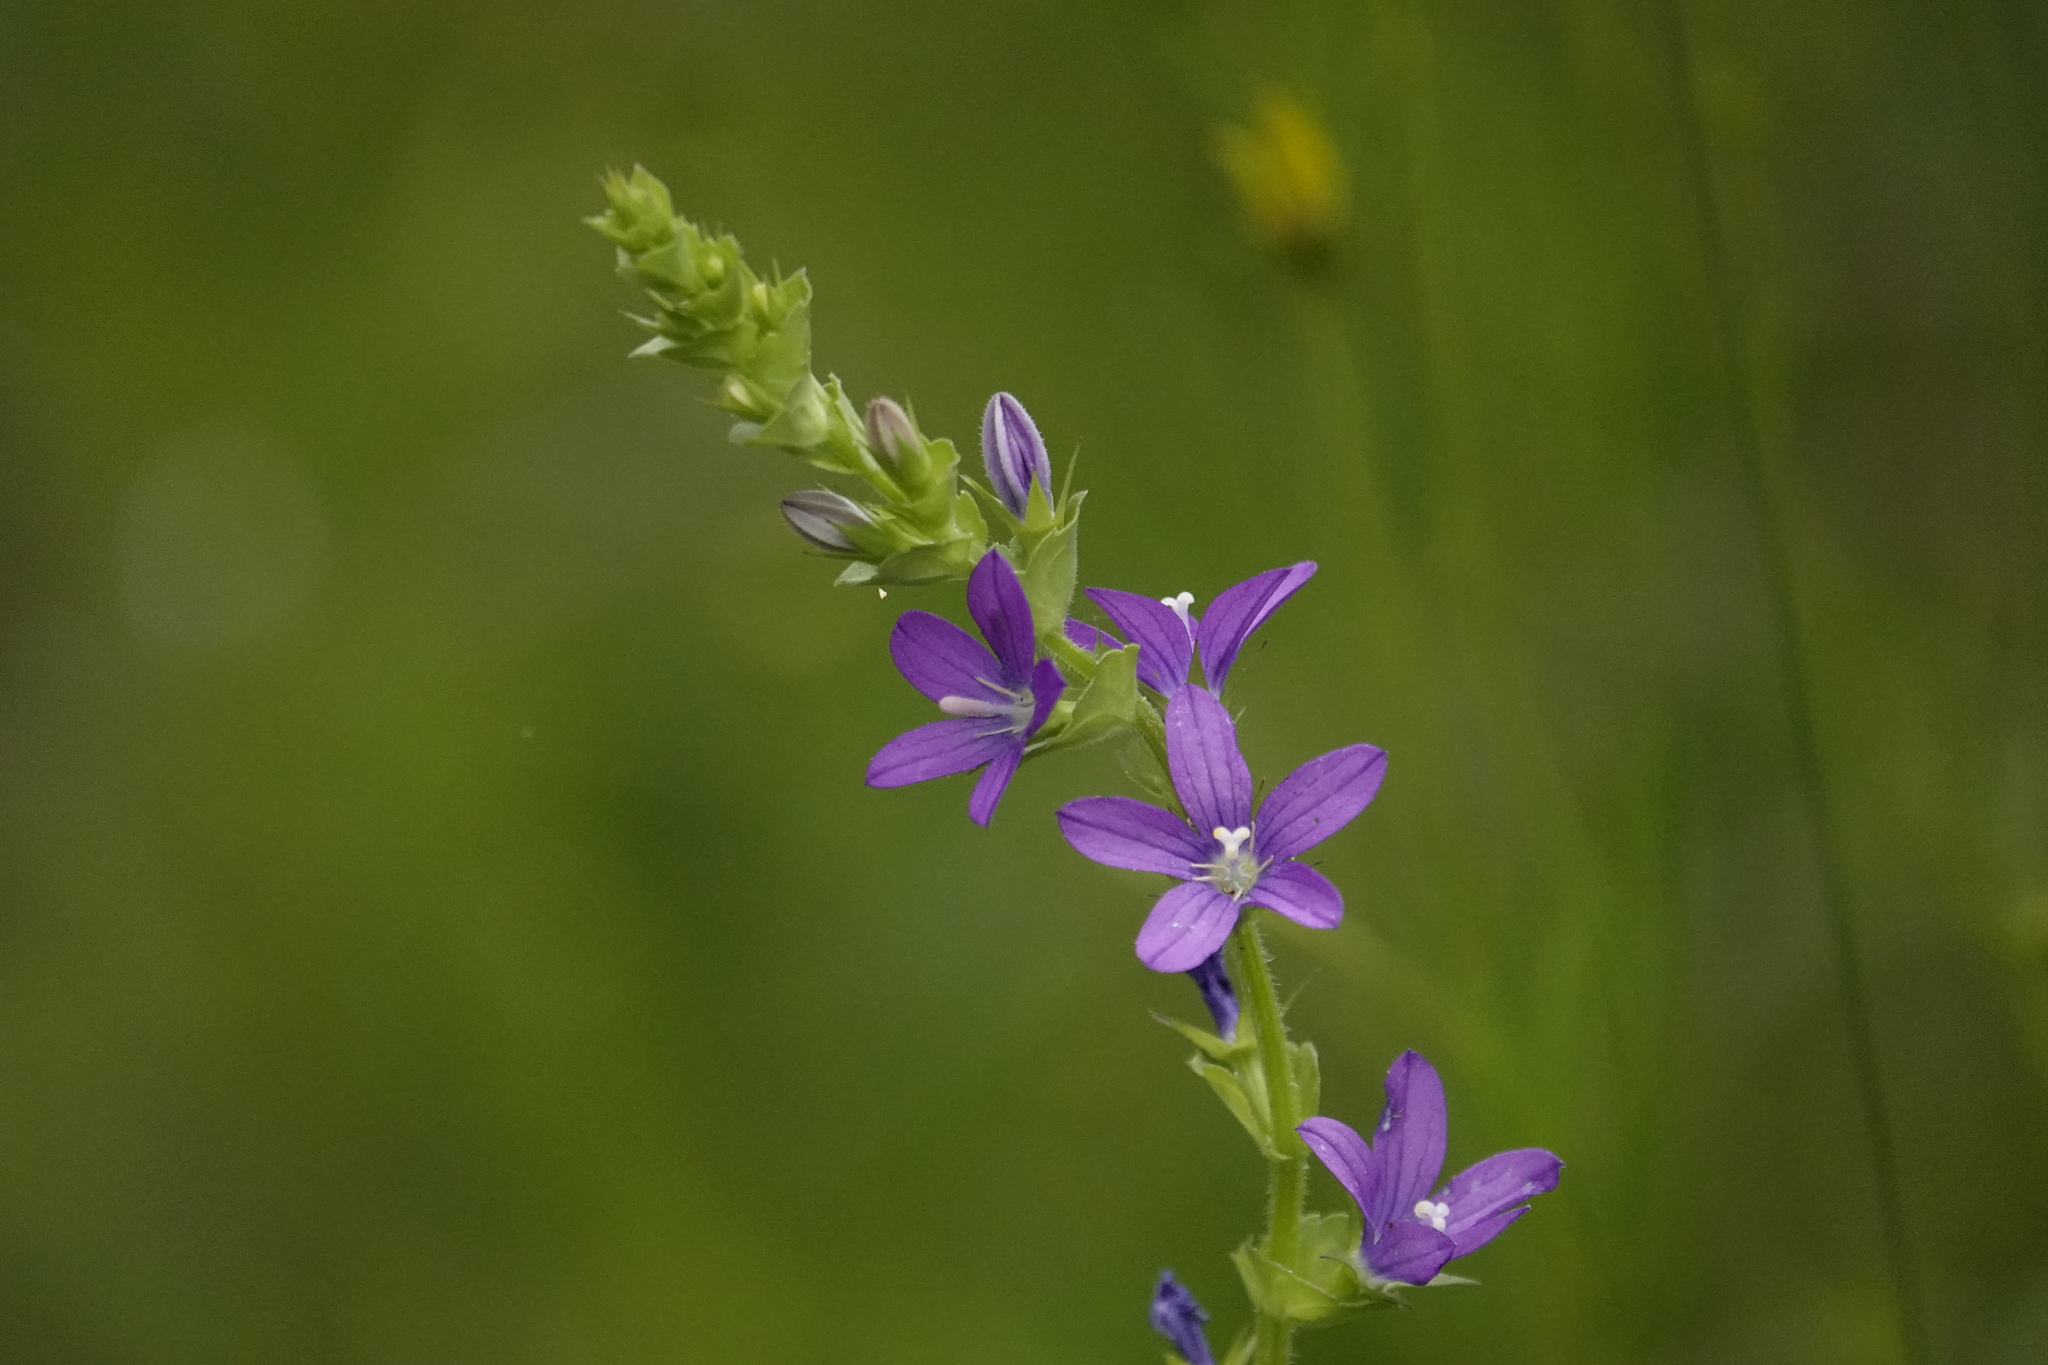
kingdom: Plantae
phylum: Tracheophyta
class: Magnoliopsida
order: Asterales
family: Campanulaceae
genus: Triodanis
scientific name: Triodanis perfoliata
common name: Clasping venus' looking-glass
